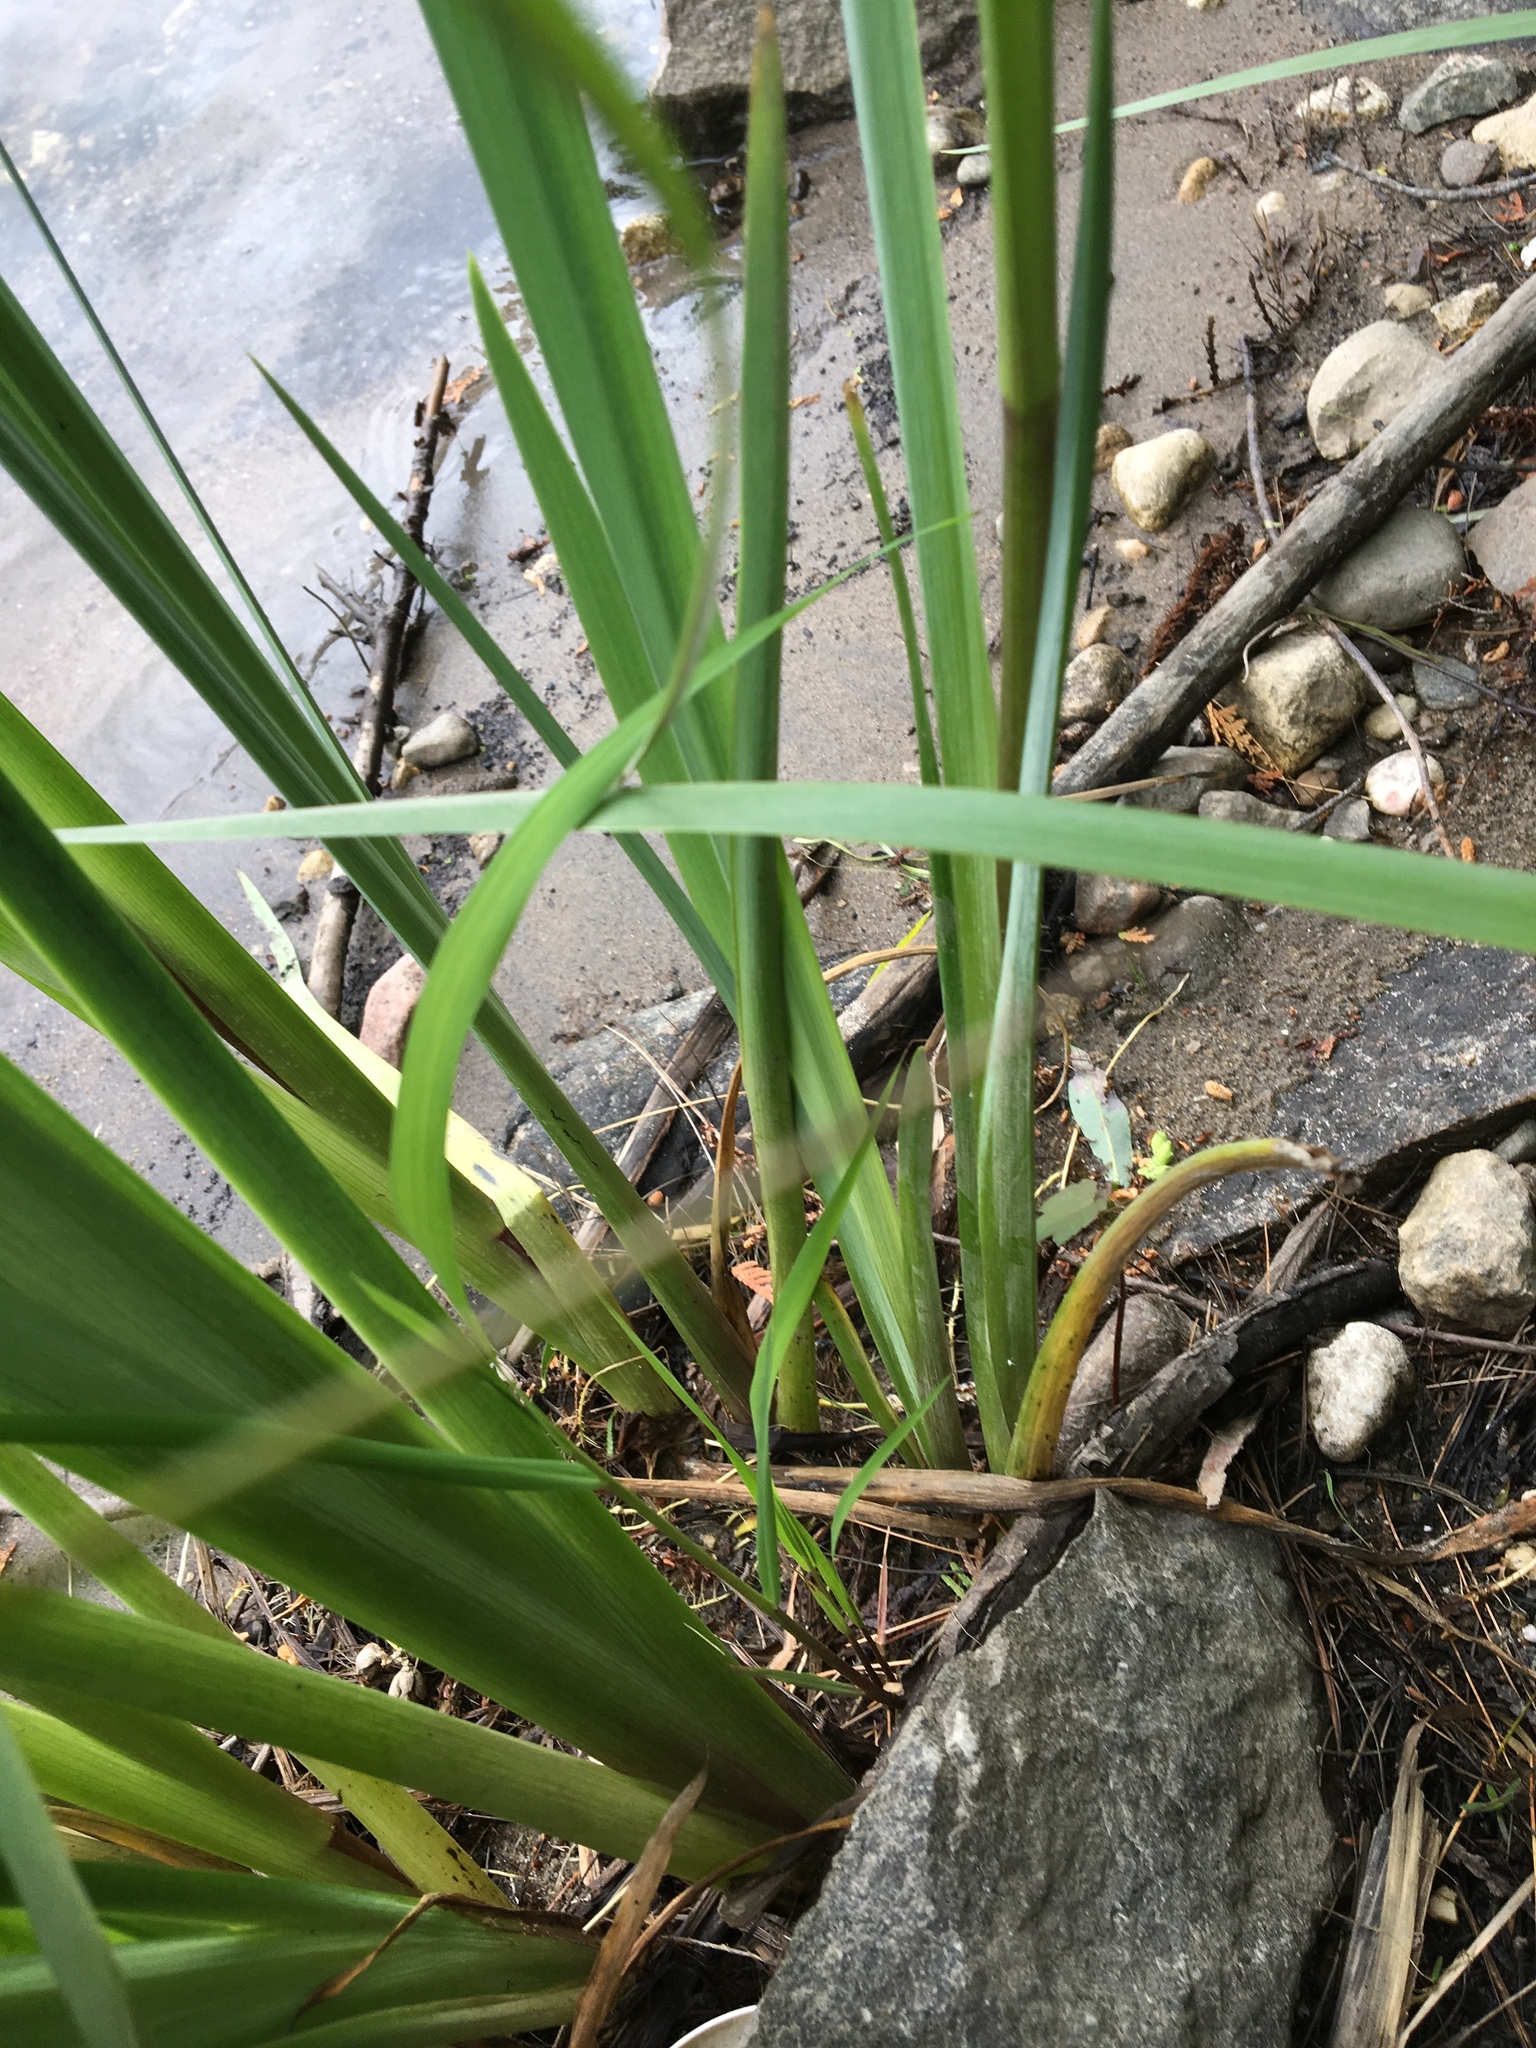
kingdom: Plantae
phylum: Tracheophyta
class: Liliopsida
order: Asparagales
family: Iridaceae
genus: Iris
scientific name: Iris pseudacorus
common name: Yellow flag
